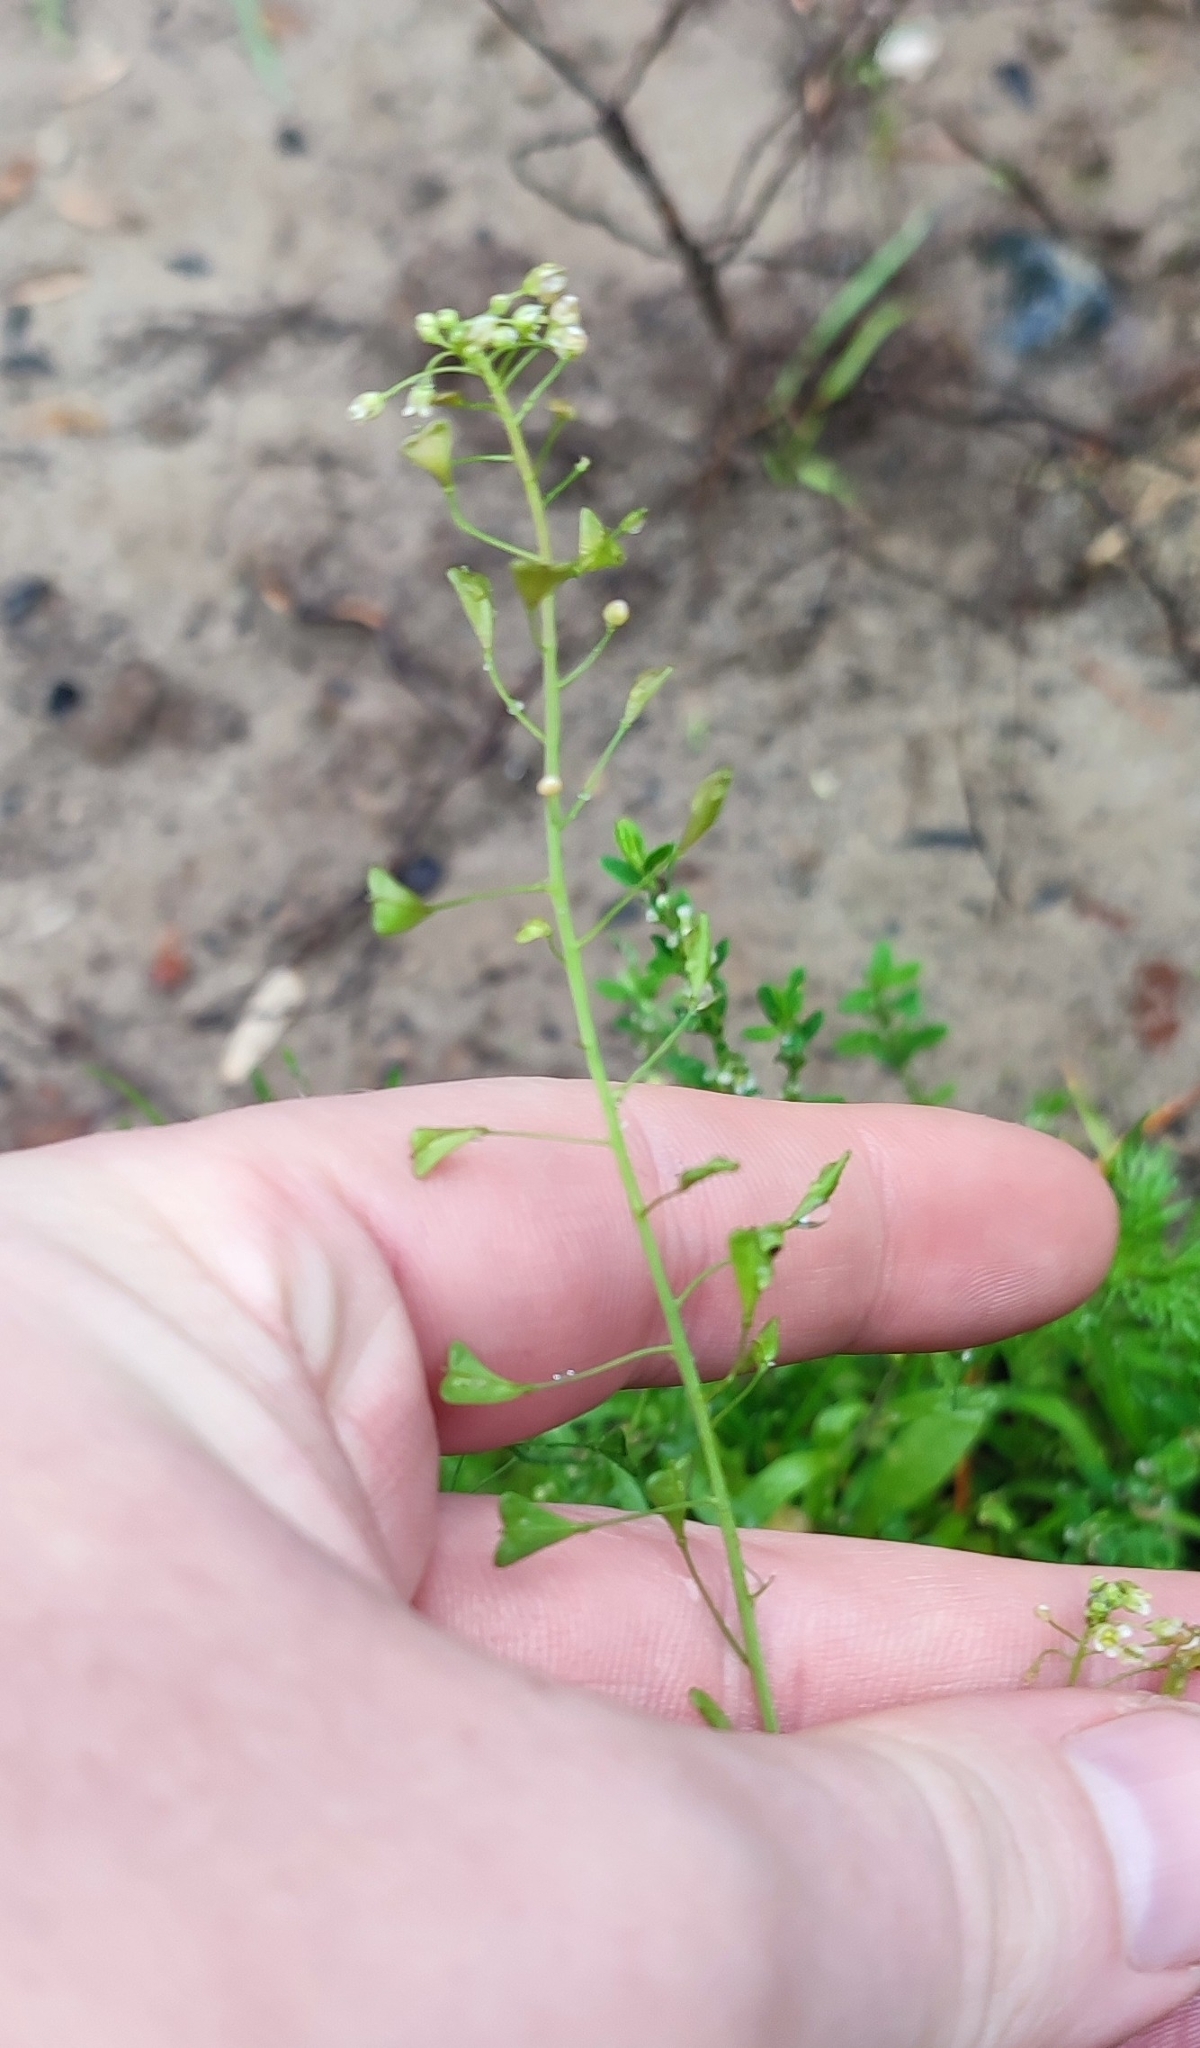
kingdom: Plantae
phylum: Tracheophyta
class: Magnoliopsida
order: Brassicales
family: Brassicaceae
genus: Capsella
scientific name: Capsella bursa-pastoris
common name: Shepherd's purse
